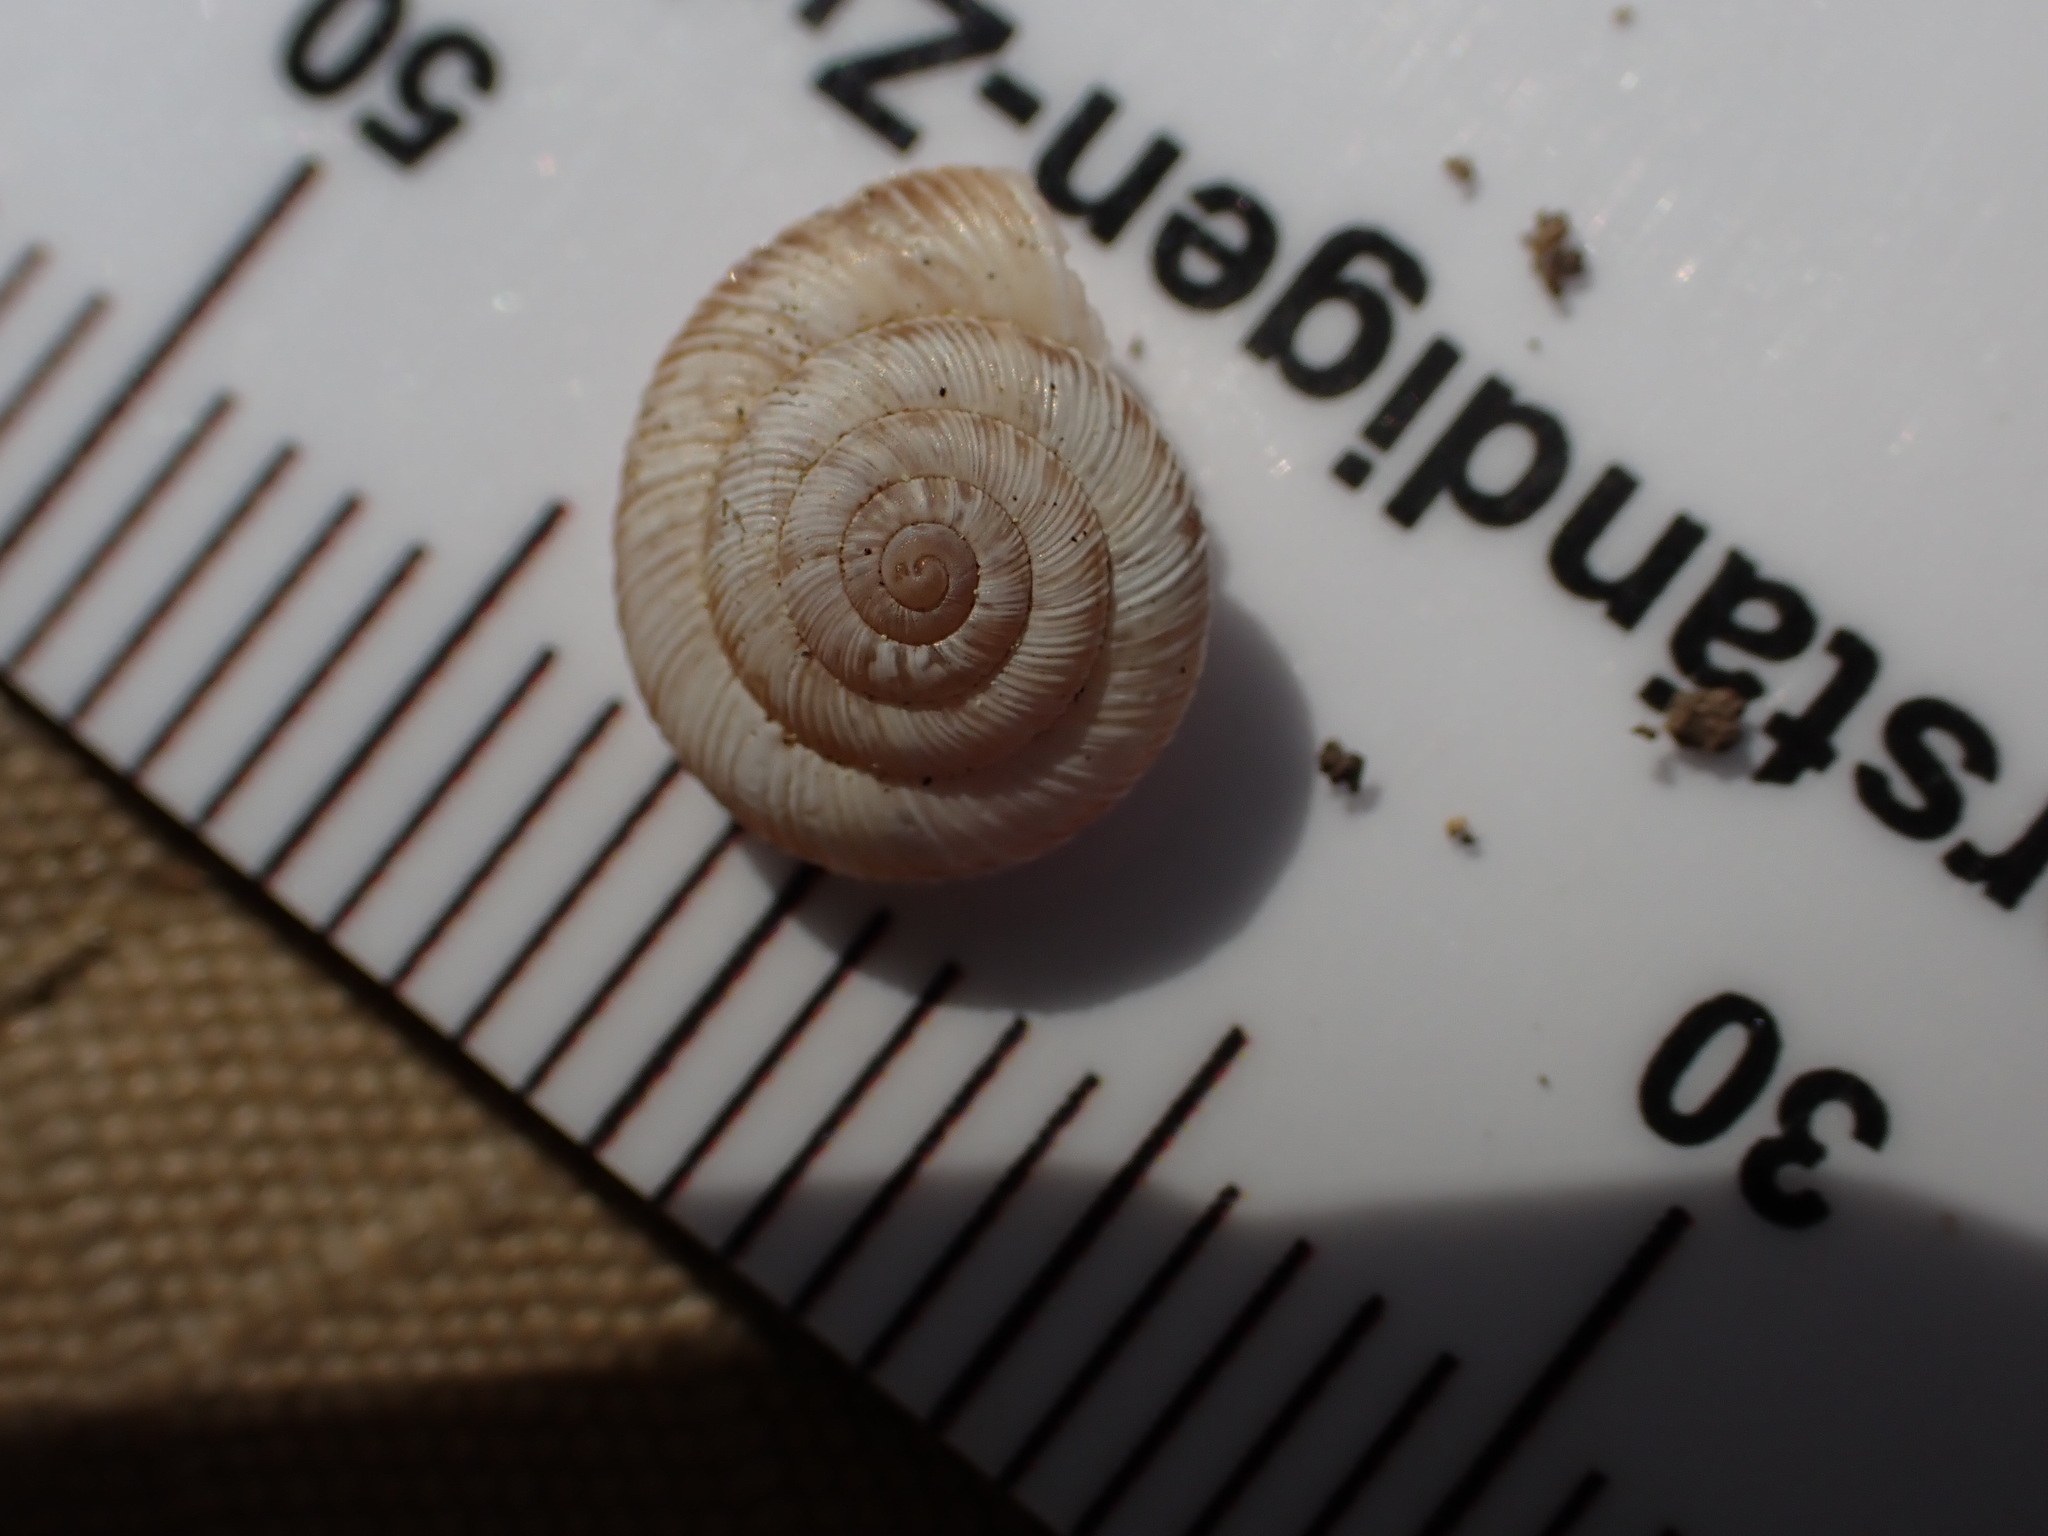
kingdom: Animalia
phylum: Mollusca
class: Gastropoda
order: Stylommatophora
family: Geomitridae
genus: Candidula
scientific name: Candidula rugosiuscula
